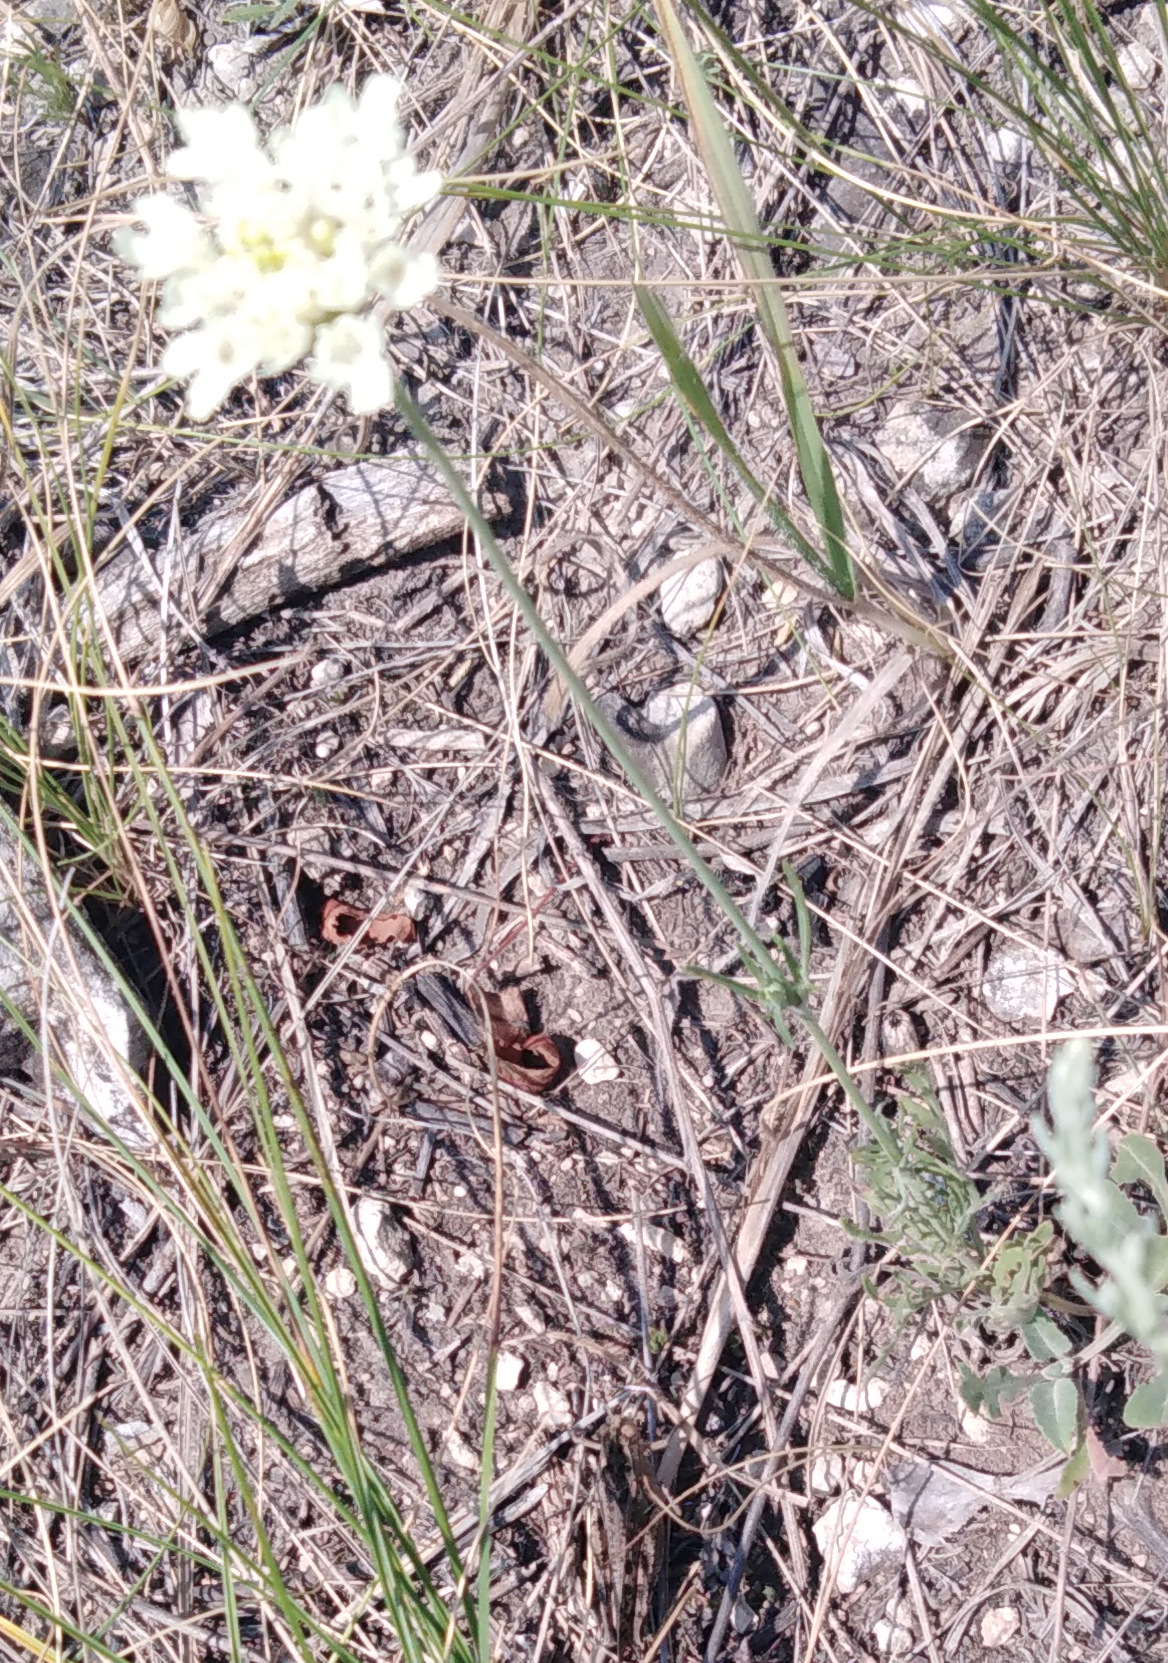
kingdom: Plantae
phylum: Tracheophyta
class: Magnoliopsida
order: Dipsacales
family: Caprifoliaceae
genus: Scabiosa
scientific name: Scabiosa ochroleuca
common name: Cream pincushions
